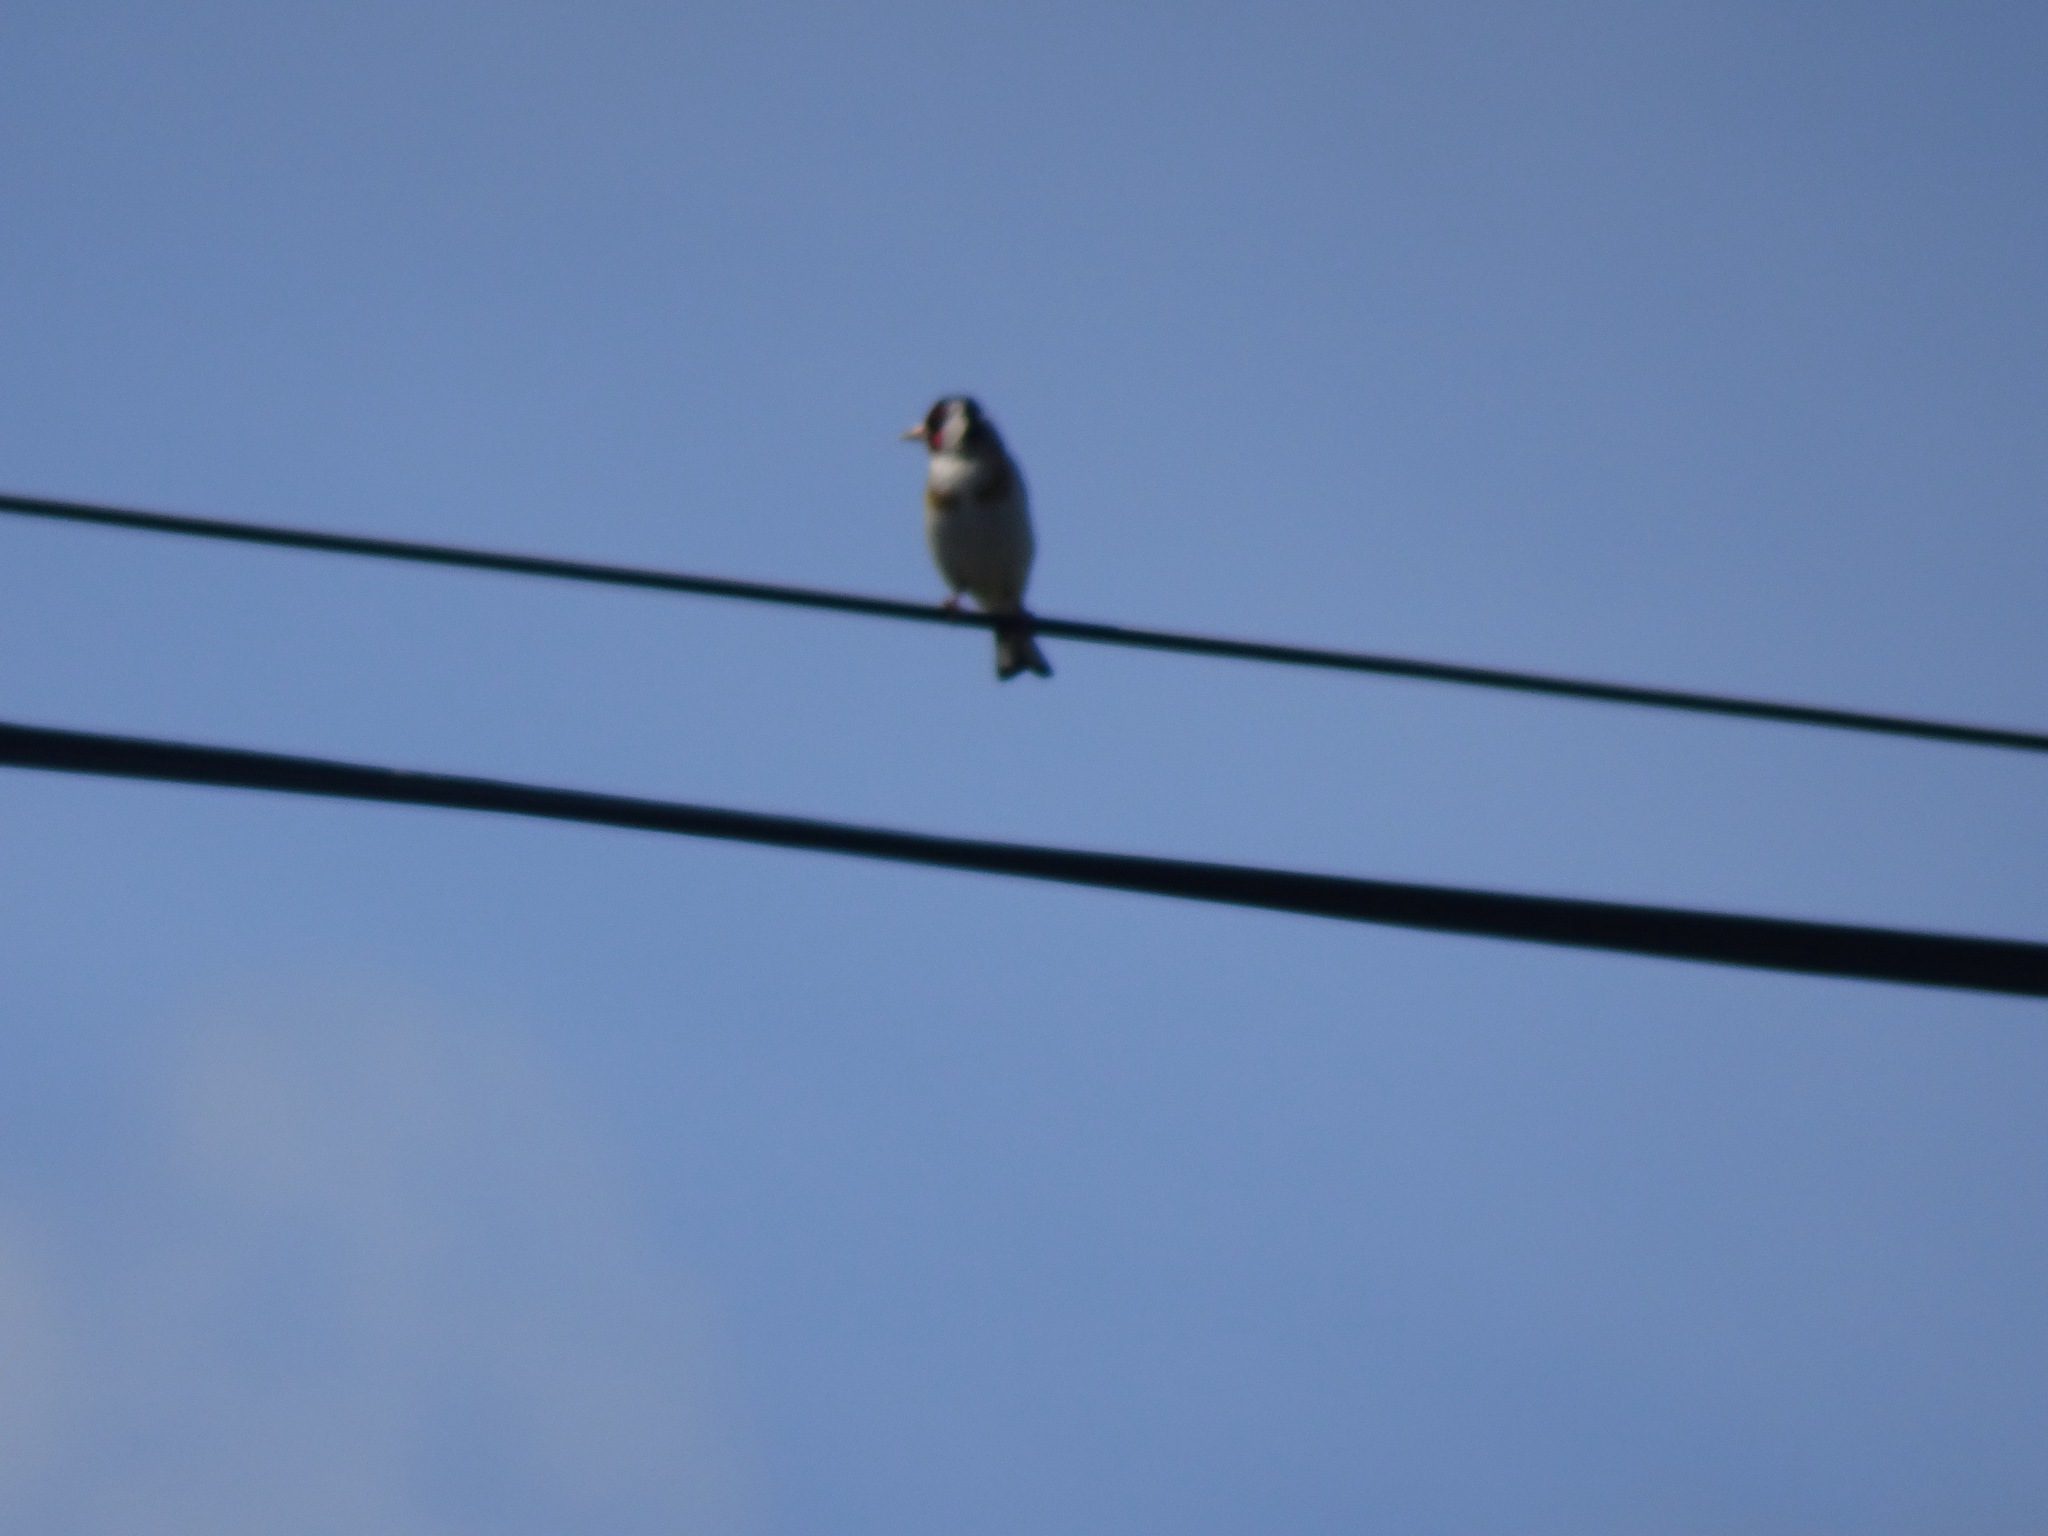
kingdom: Animalia
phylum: Chordata
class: Aves
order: Passeriformes
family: Fringillidae
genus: Carduelis
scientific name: Carduelis carduelis
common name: European goldfinch
